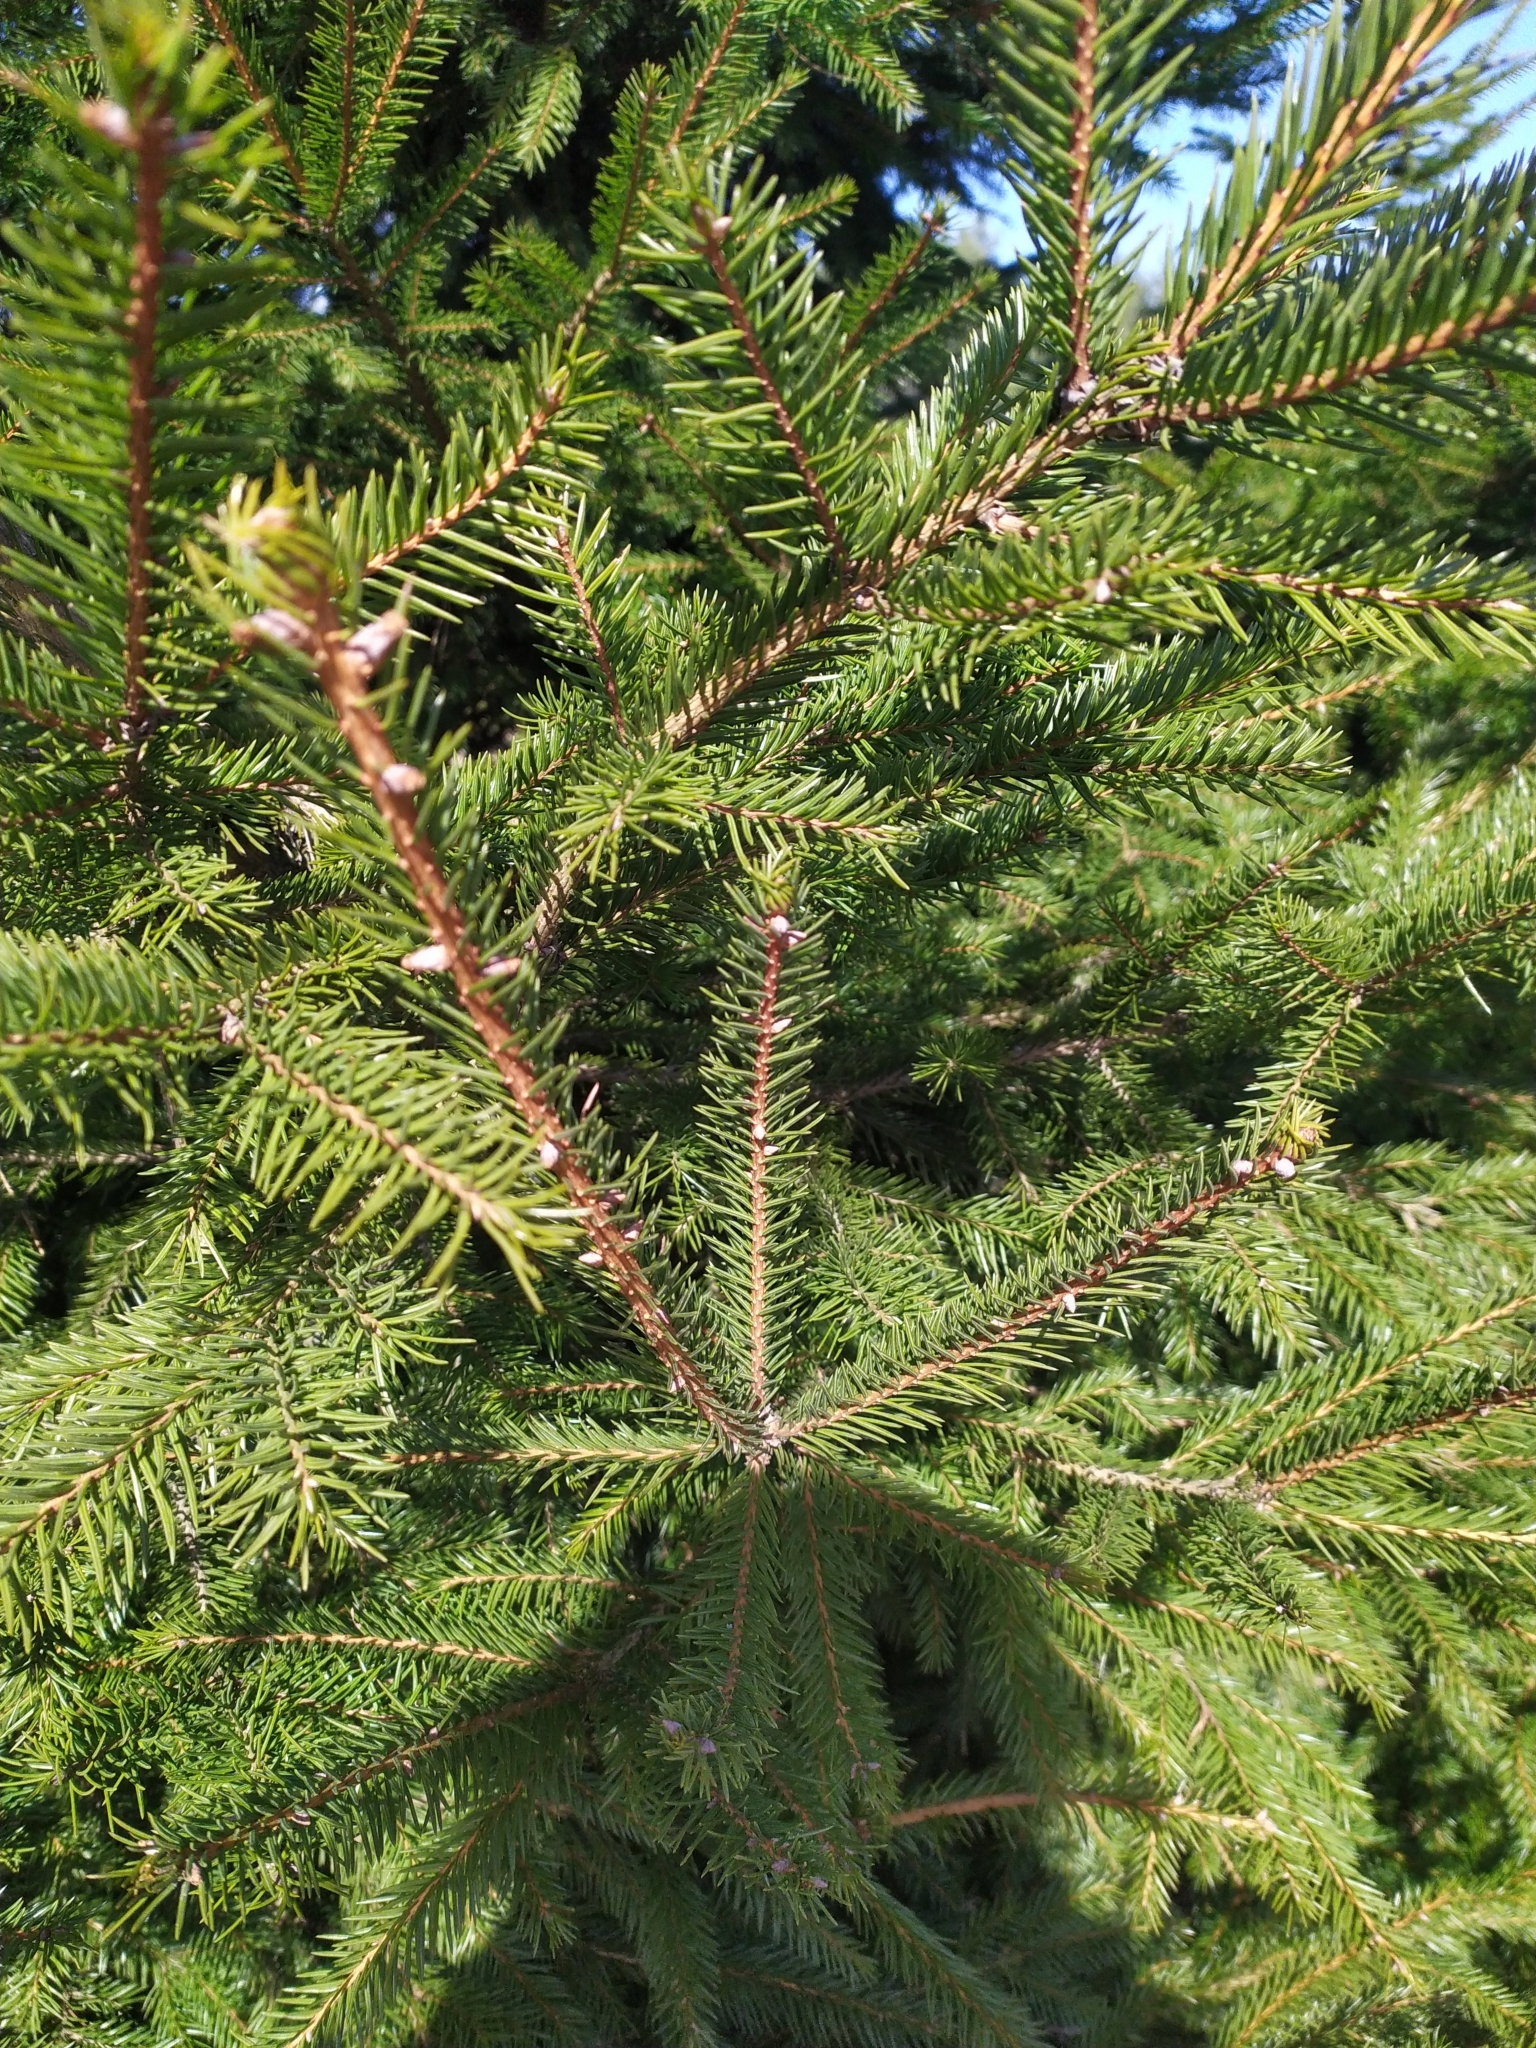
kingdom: Plantae
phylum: Tracheophyta
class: Pinopsida
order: Pinales
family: Pinaceae
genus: Picea
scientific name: Picea abies
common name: Norway spruce
